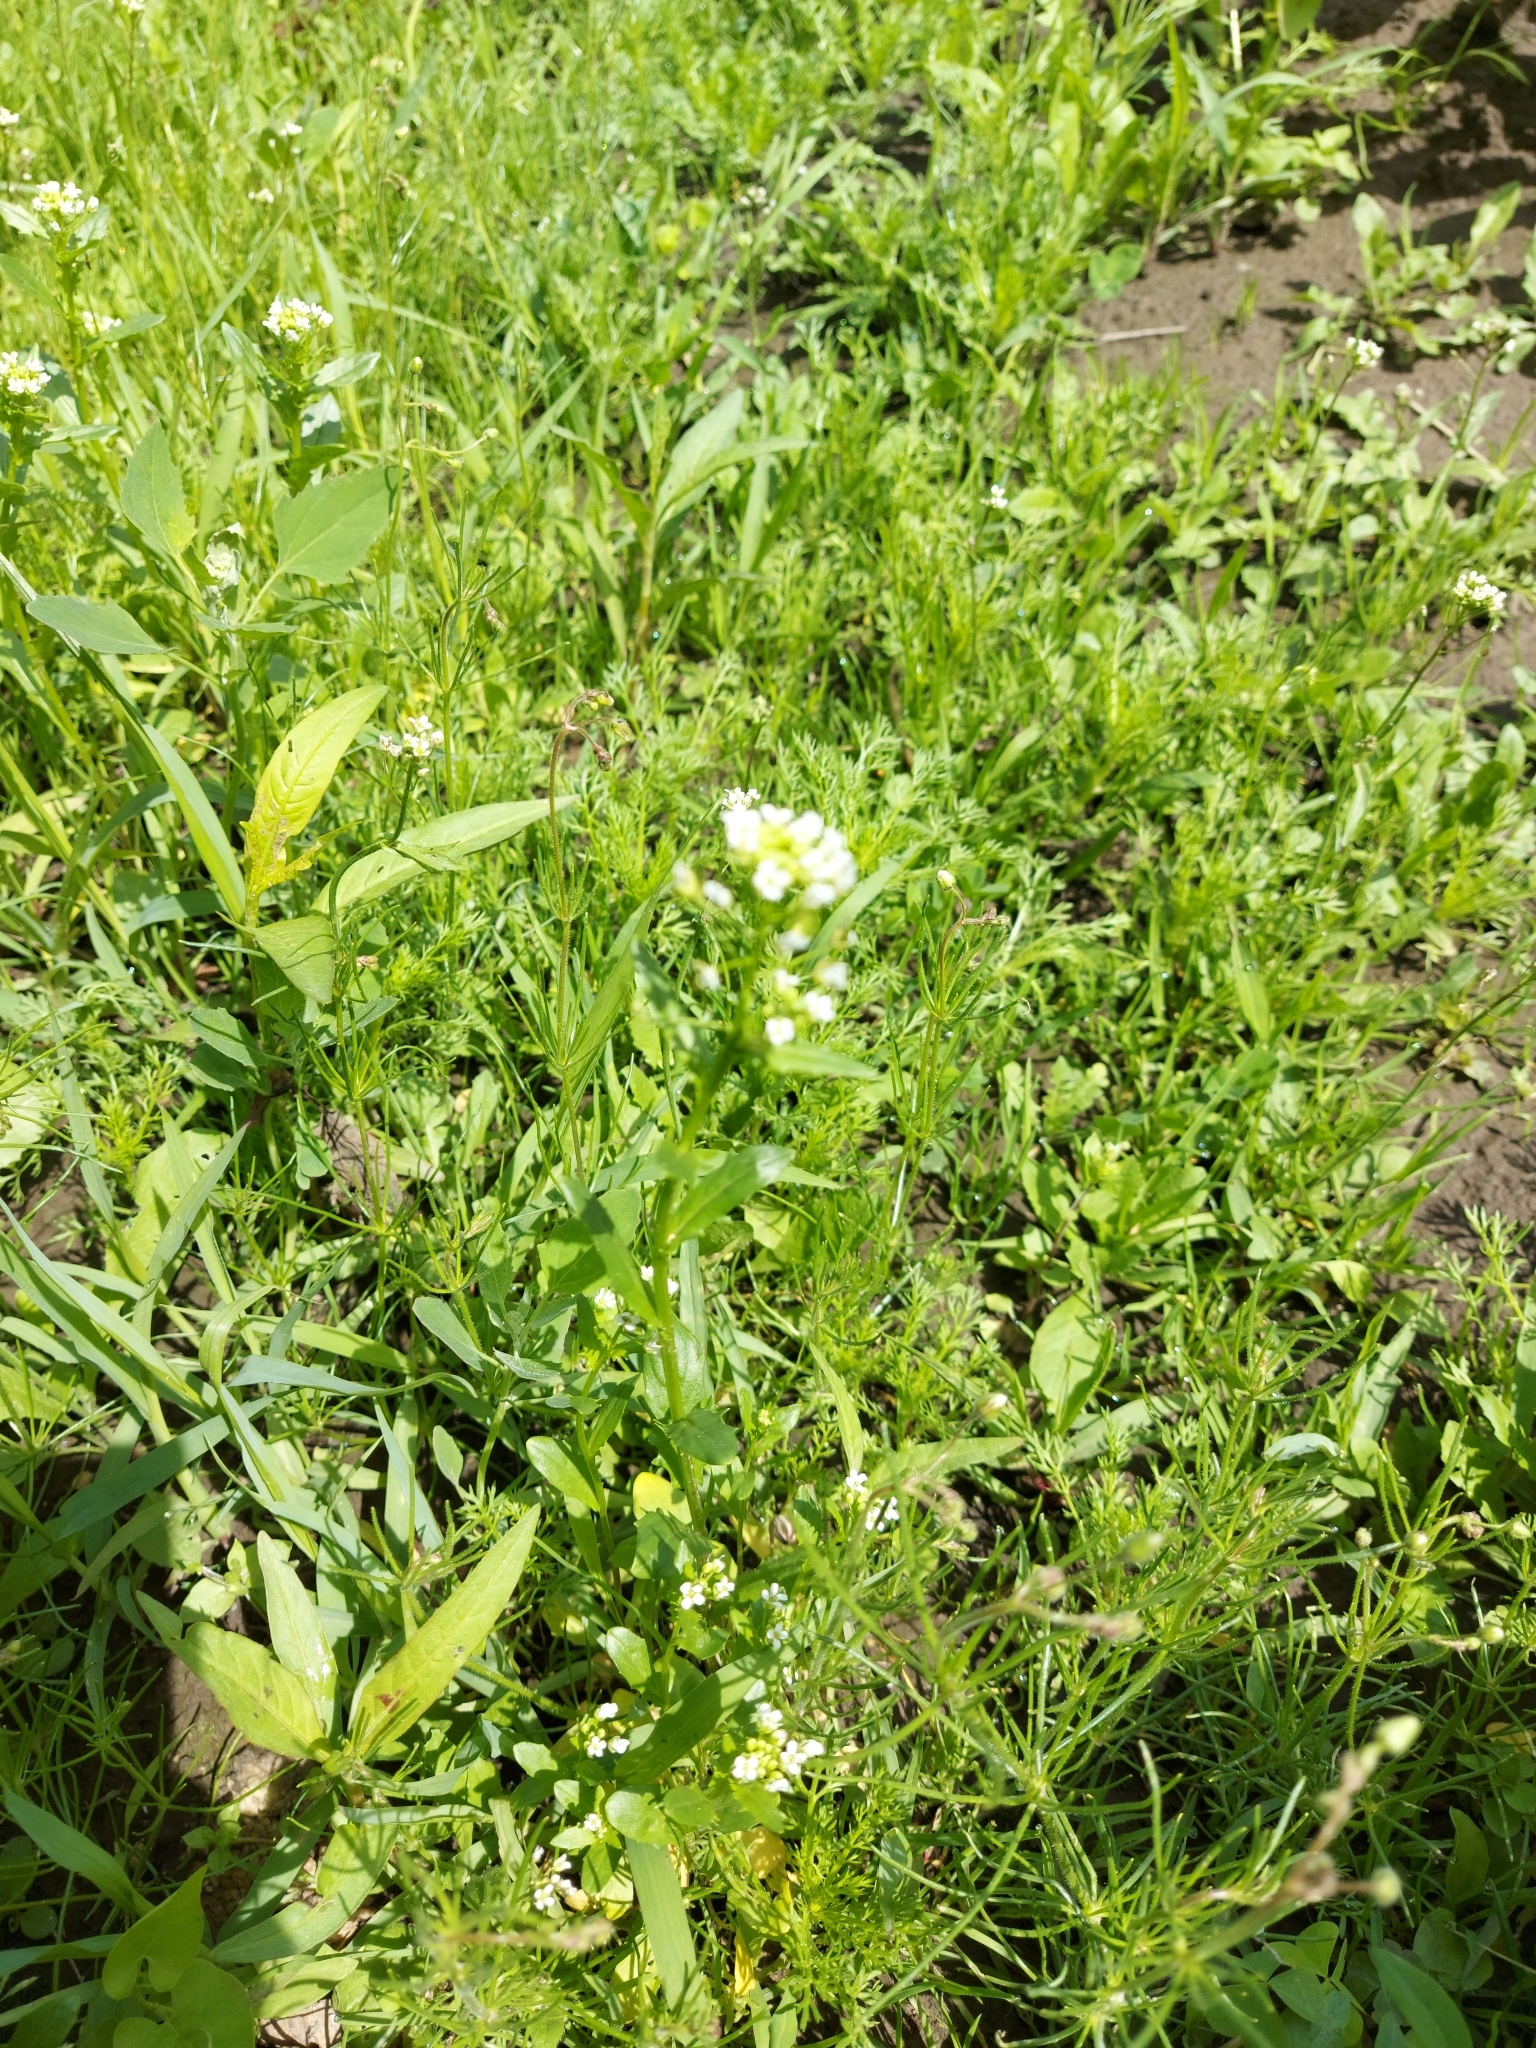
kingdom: Plantae
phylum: Tracheophyta
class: Magnoliopsida
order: Brassicales
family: Brassicaceae
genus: Capsella
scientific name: Capsella bursa-pastoris
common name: Shepherd's purse
